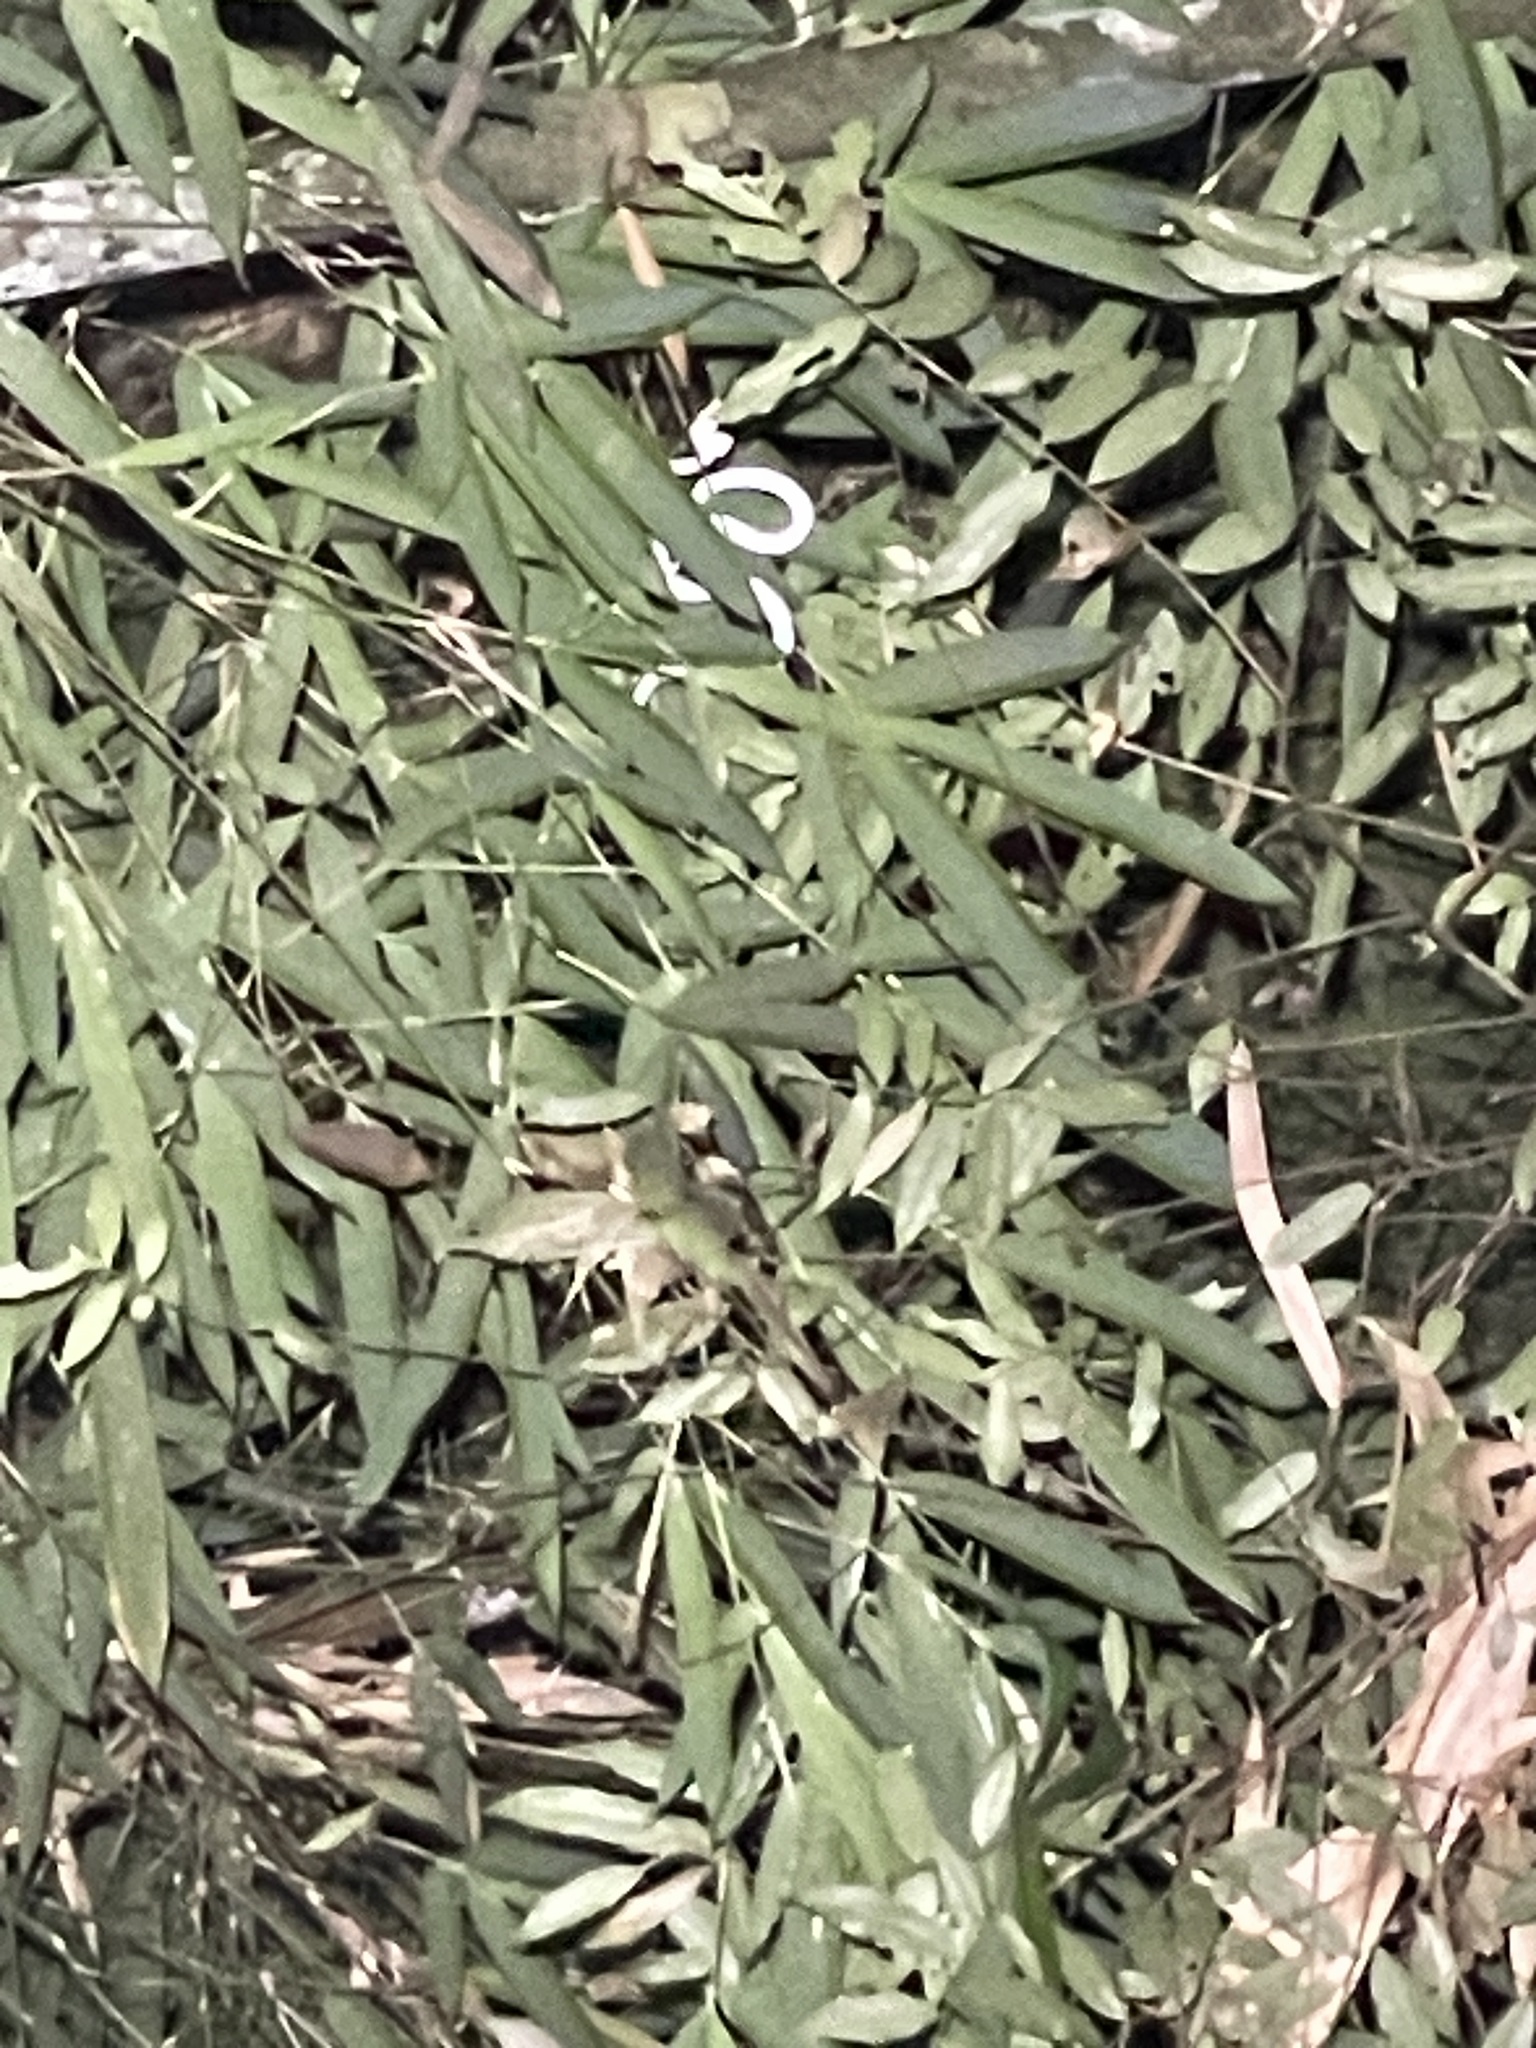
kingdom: Animalia
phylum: Chordata
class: Squamata
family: Viperidae
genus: Tropidolaemus
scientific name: Tropidolaemus wagleri
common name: Wagler's palm viper
